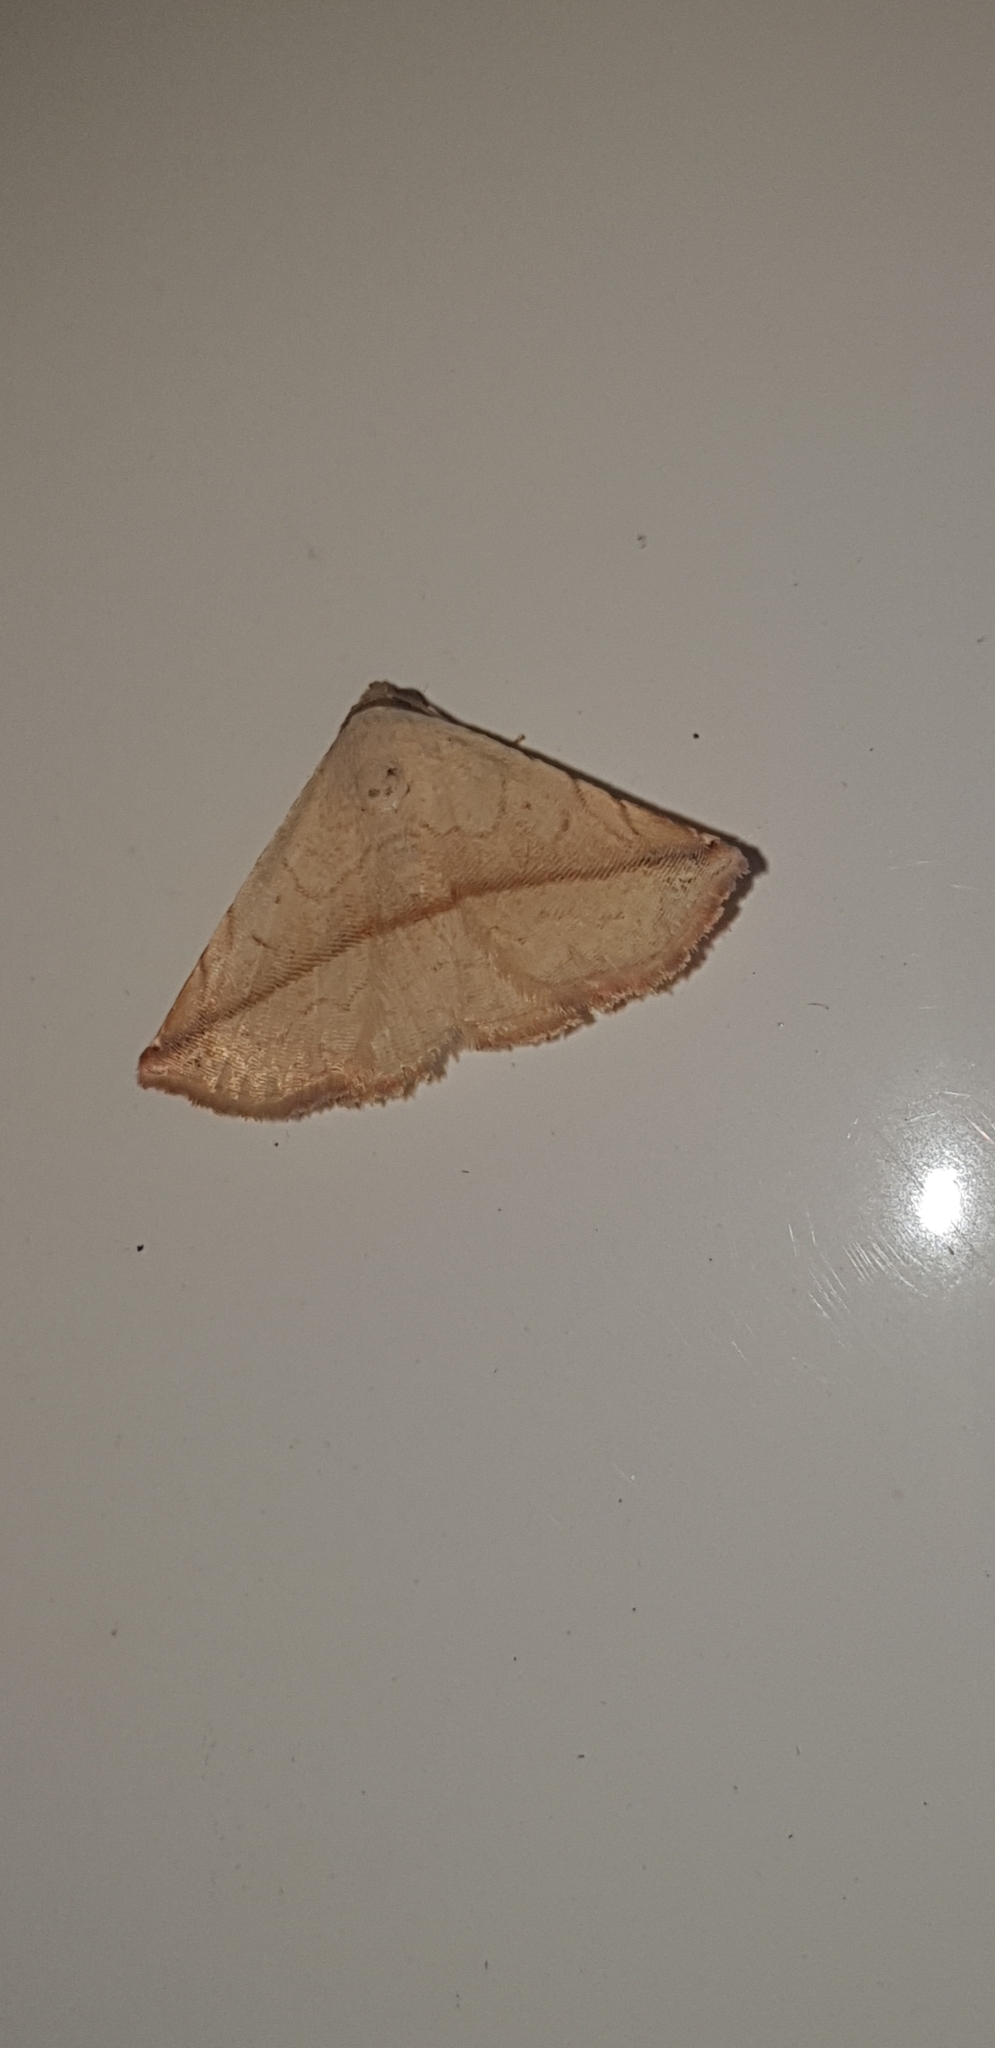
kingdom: Animalia
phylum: Arthropoda
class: Insecta
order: Lepidoptera
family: Noctuidae
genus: Eublemma
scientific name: Eublemma perversicolor
